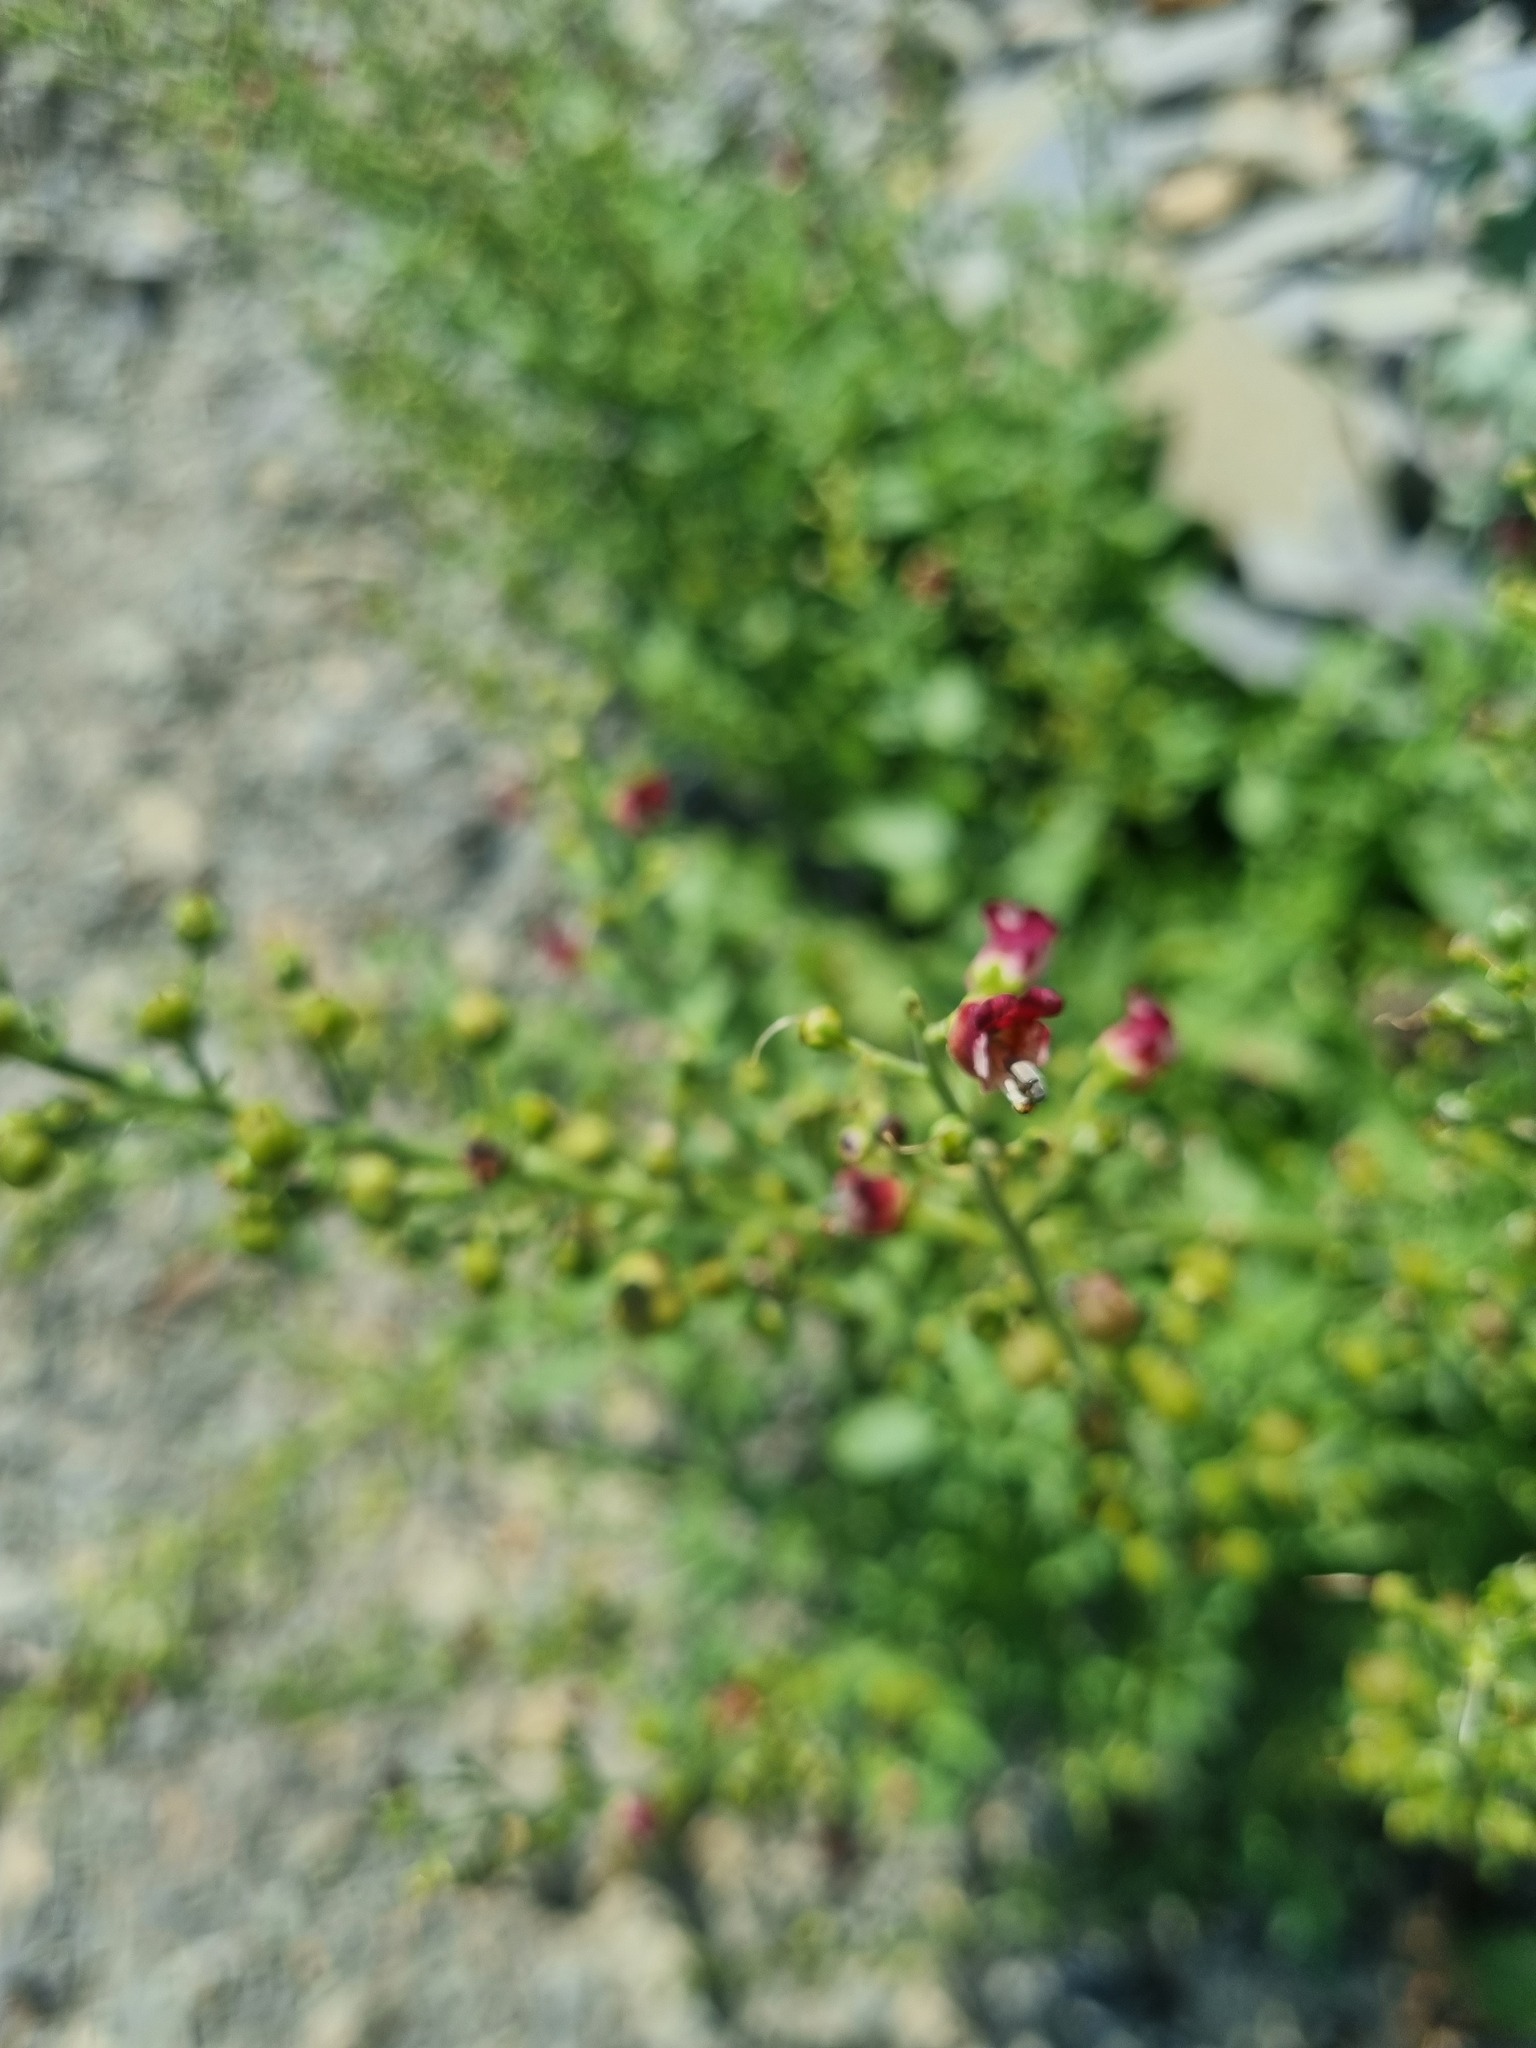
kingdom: Plantae
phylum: Tracheophyta
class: Magnoliopsida
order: Lamiales
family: Scrophulariaceae
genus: Scrophularia
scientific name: Scrophularia rupestris
